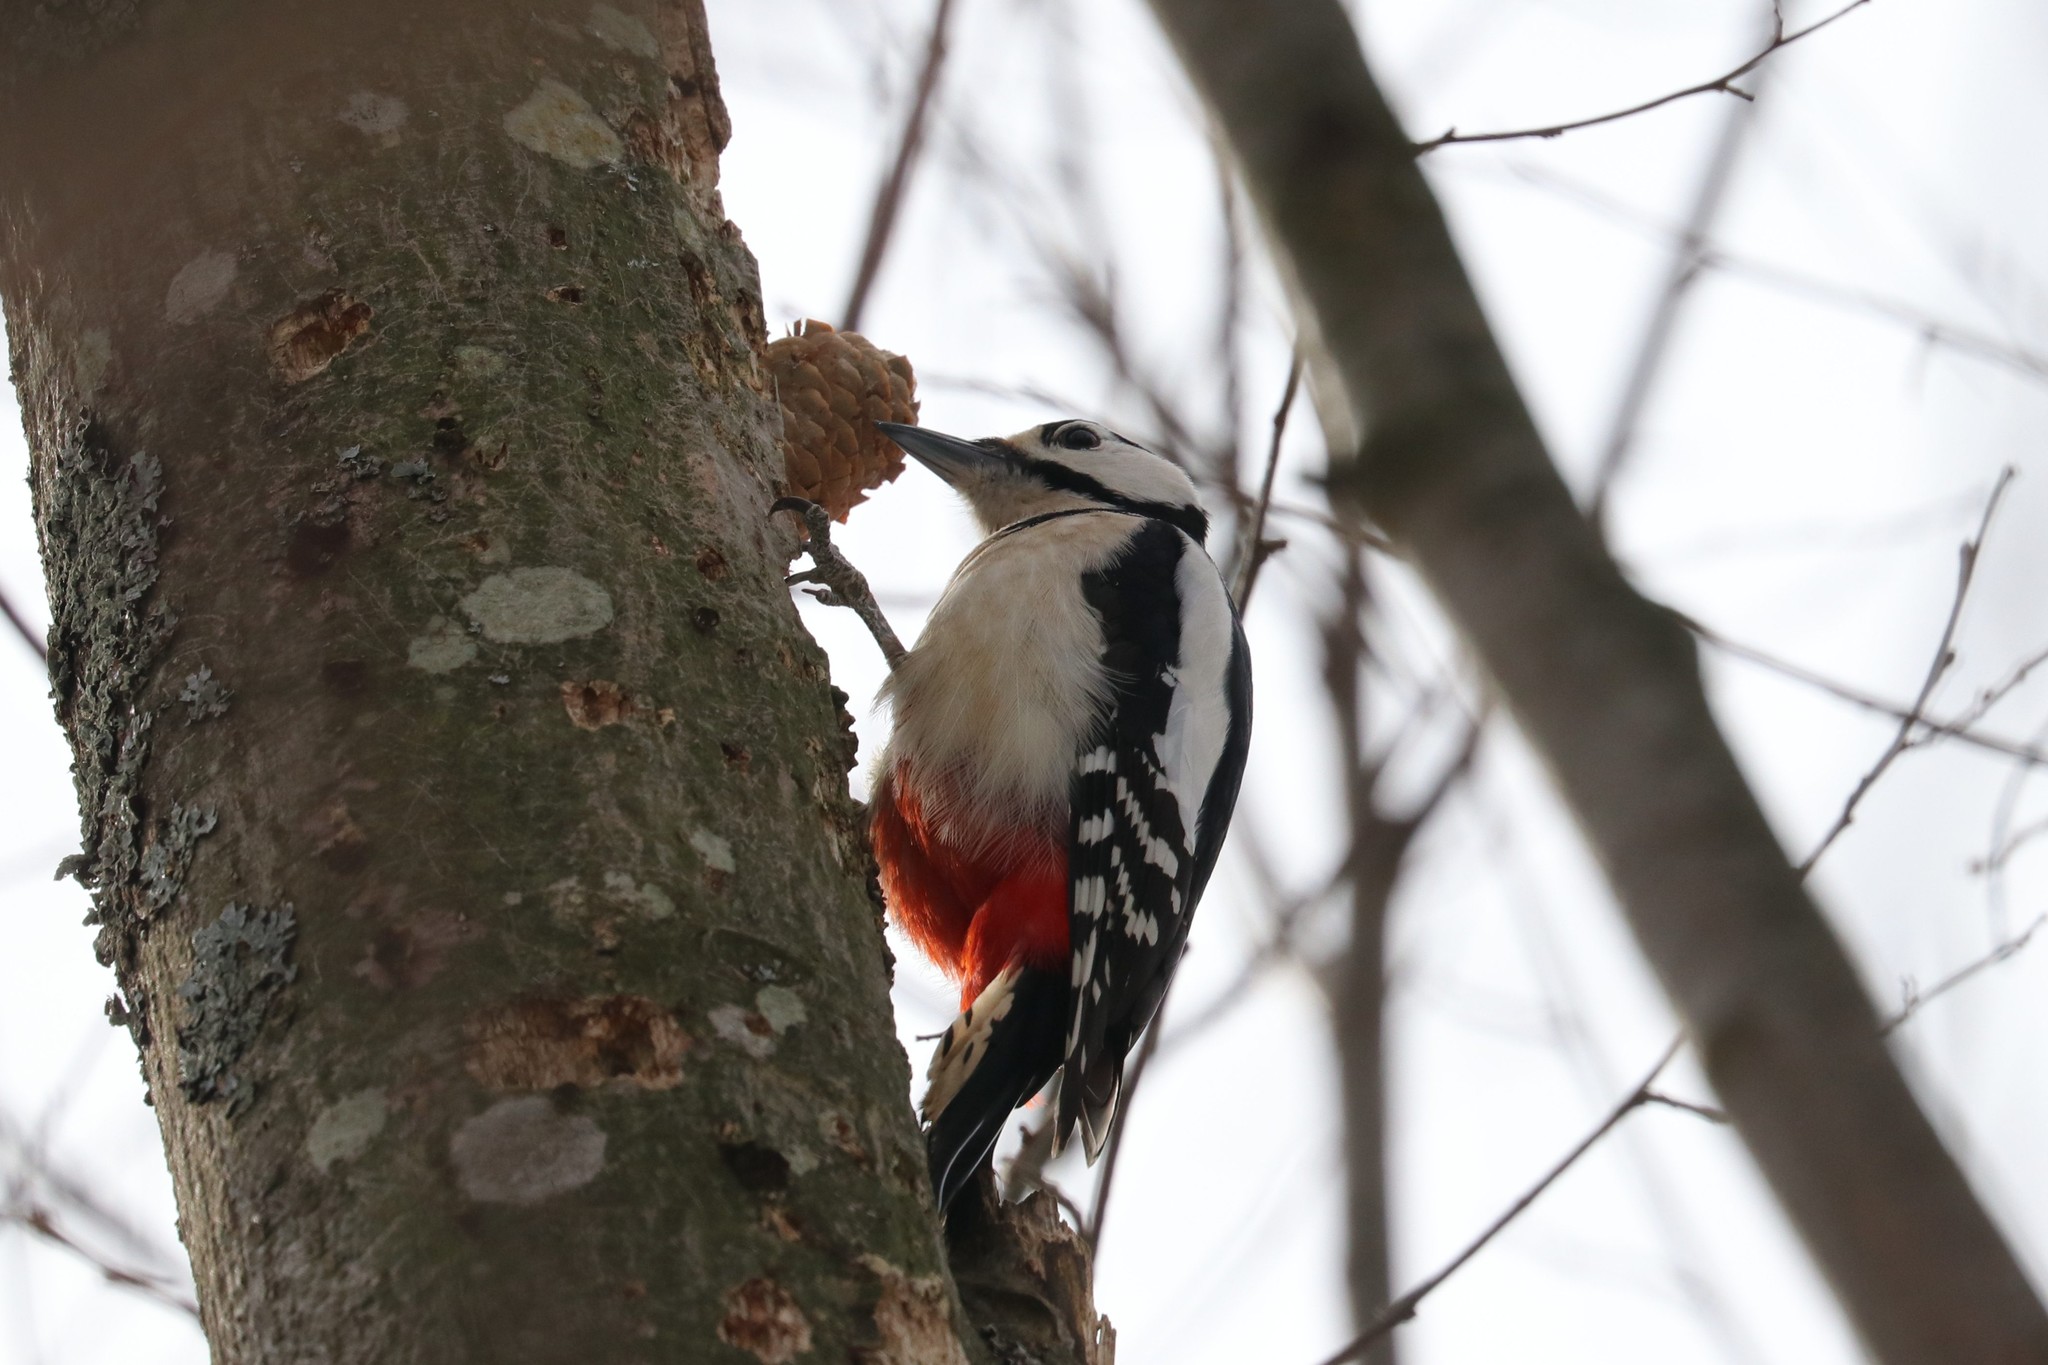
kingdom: Animalia
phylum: Chordata
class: Aves
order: Piciformes
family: Picidae
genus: Dendrocopos
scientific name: Dendrocopos major
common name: Great spotted woodpecker
